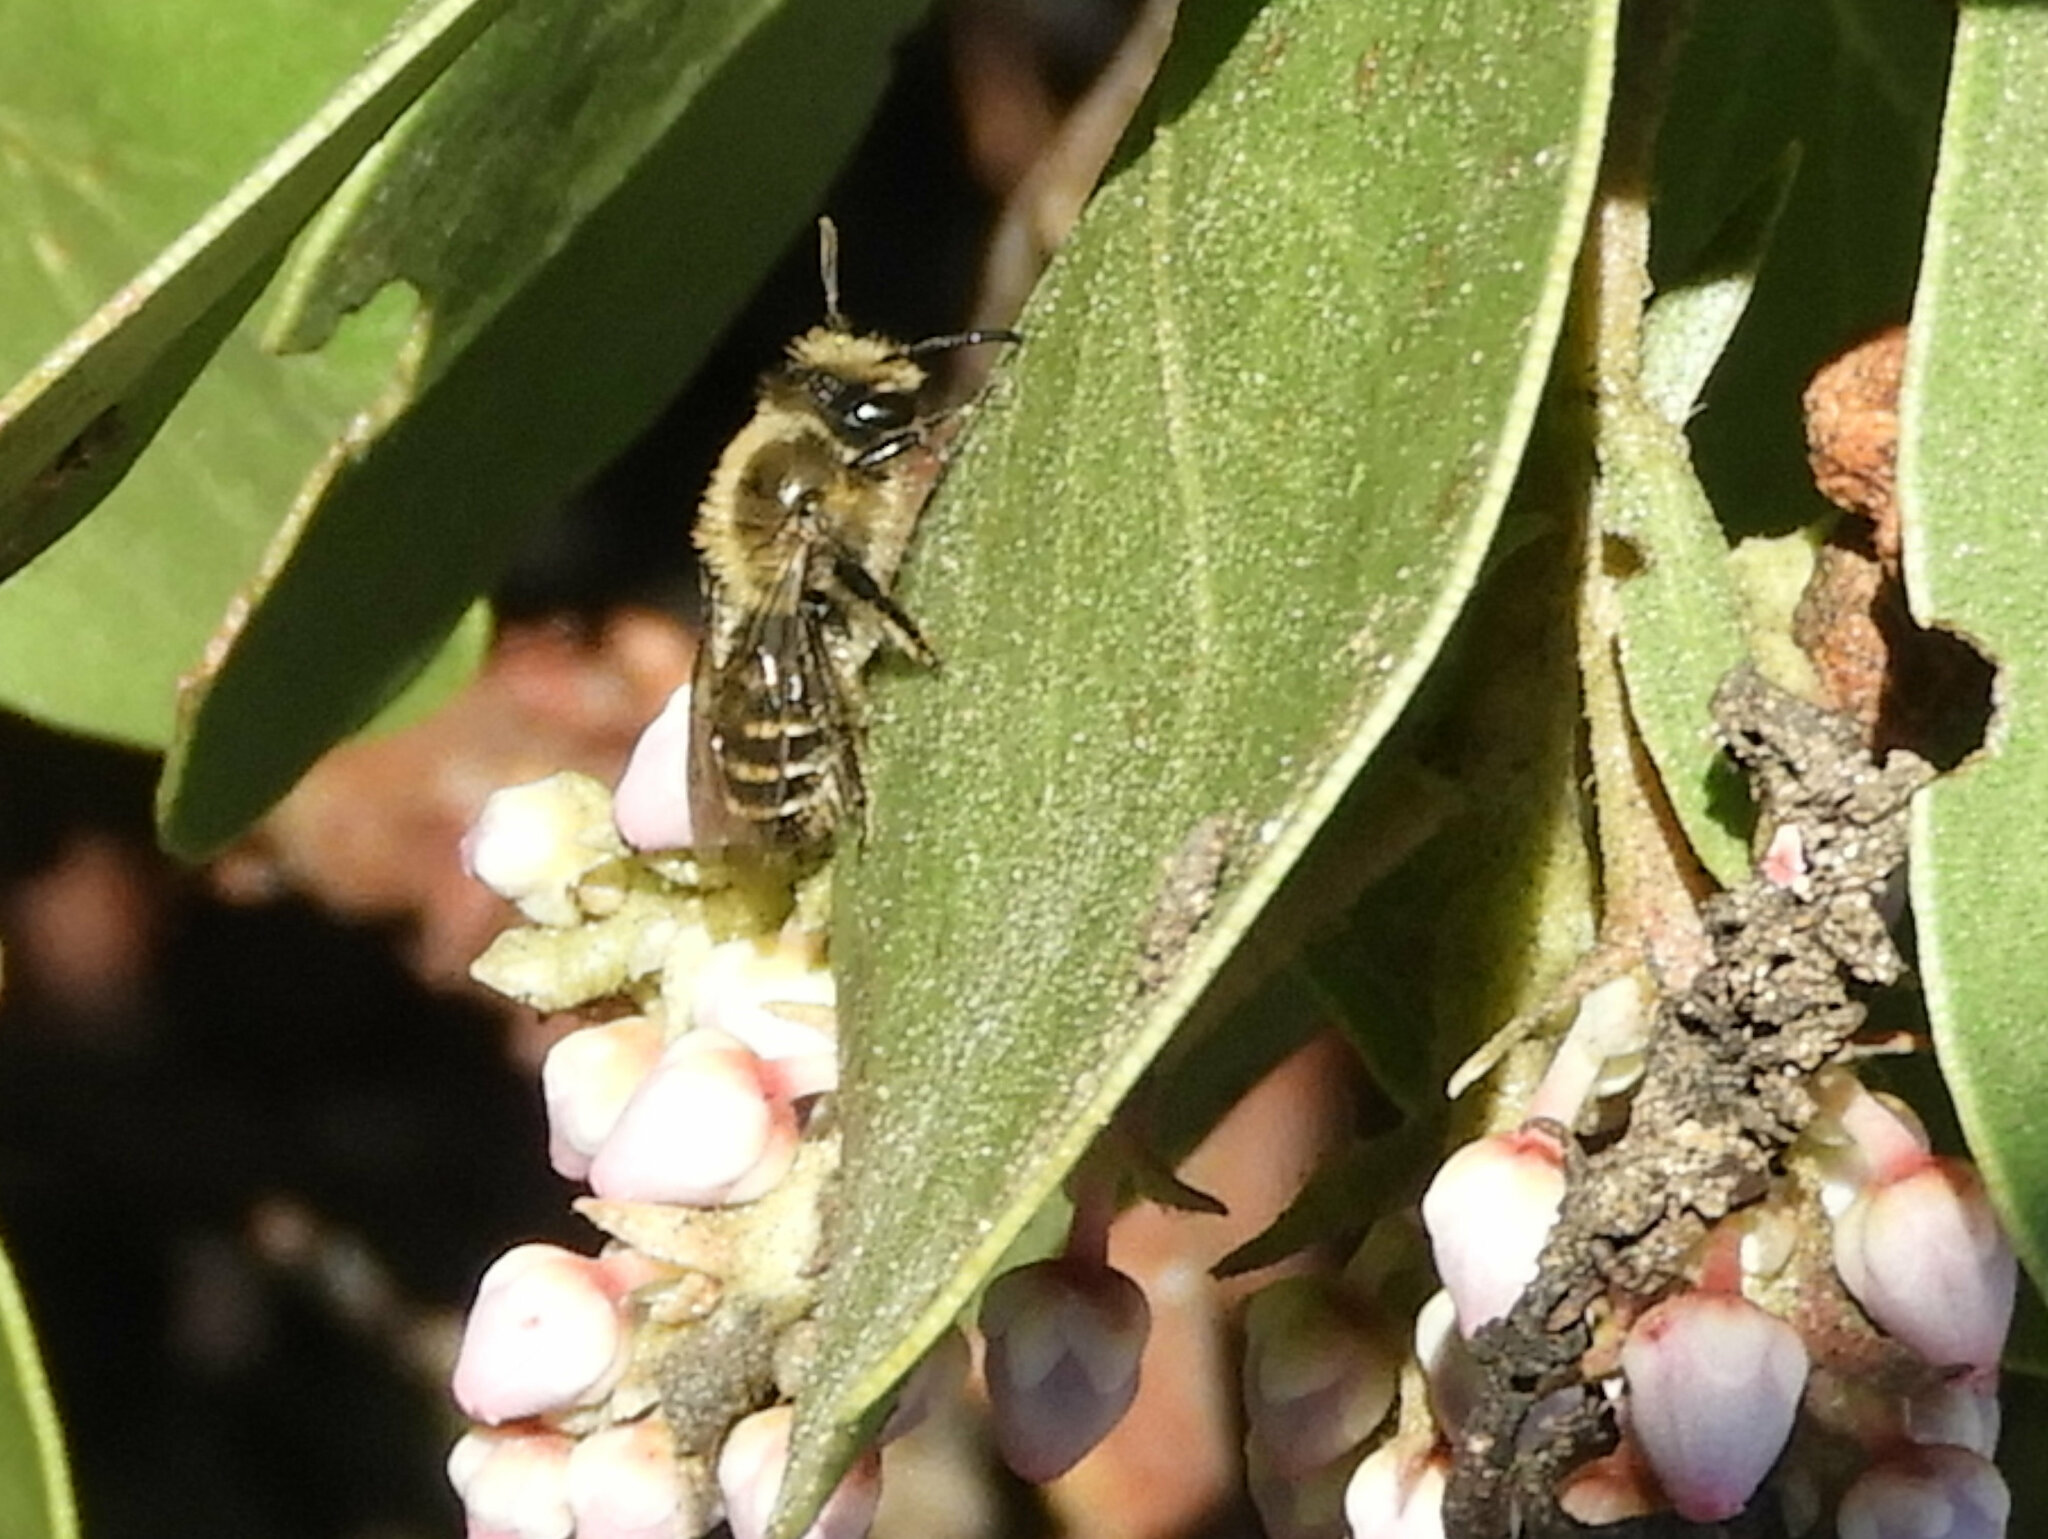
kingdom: Animalia
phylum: Arthropoda
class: Insecta
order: Hymenoptera
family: Apidae
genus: Apis
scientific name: Apis mellifera
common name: Honey bee
